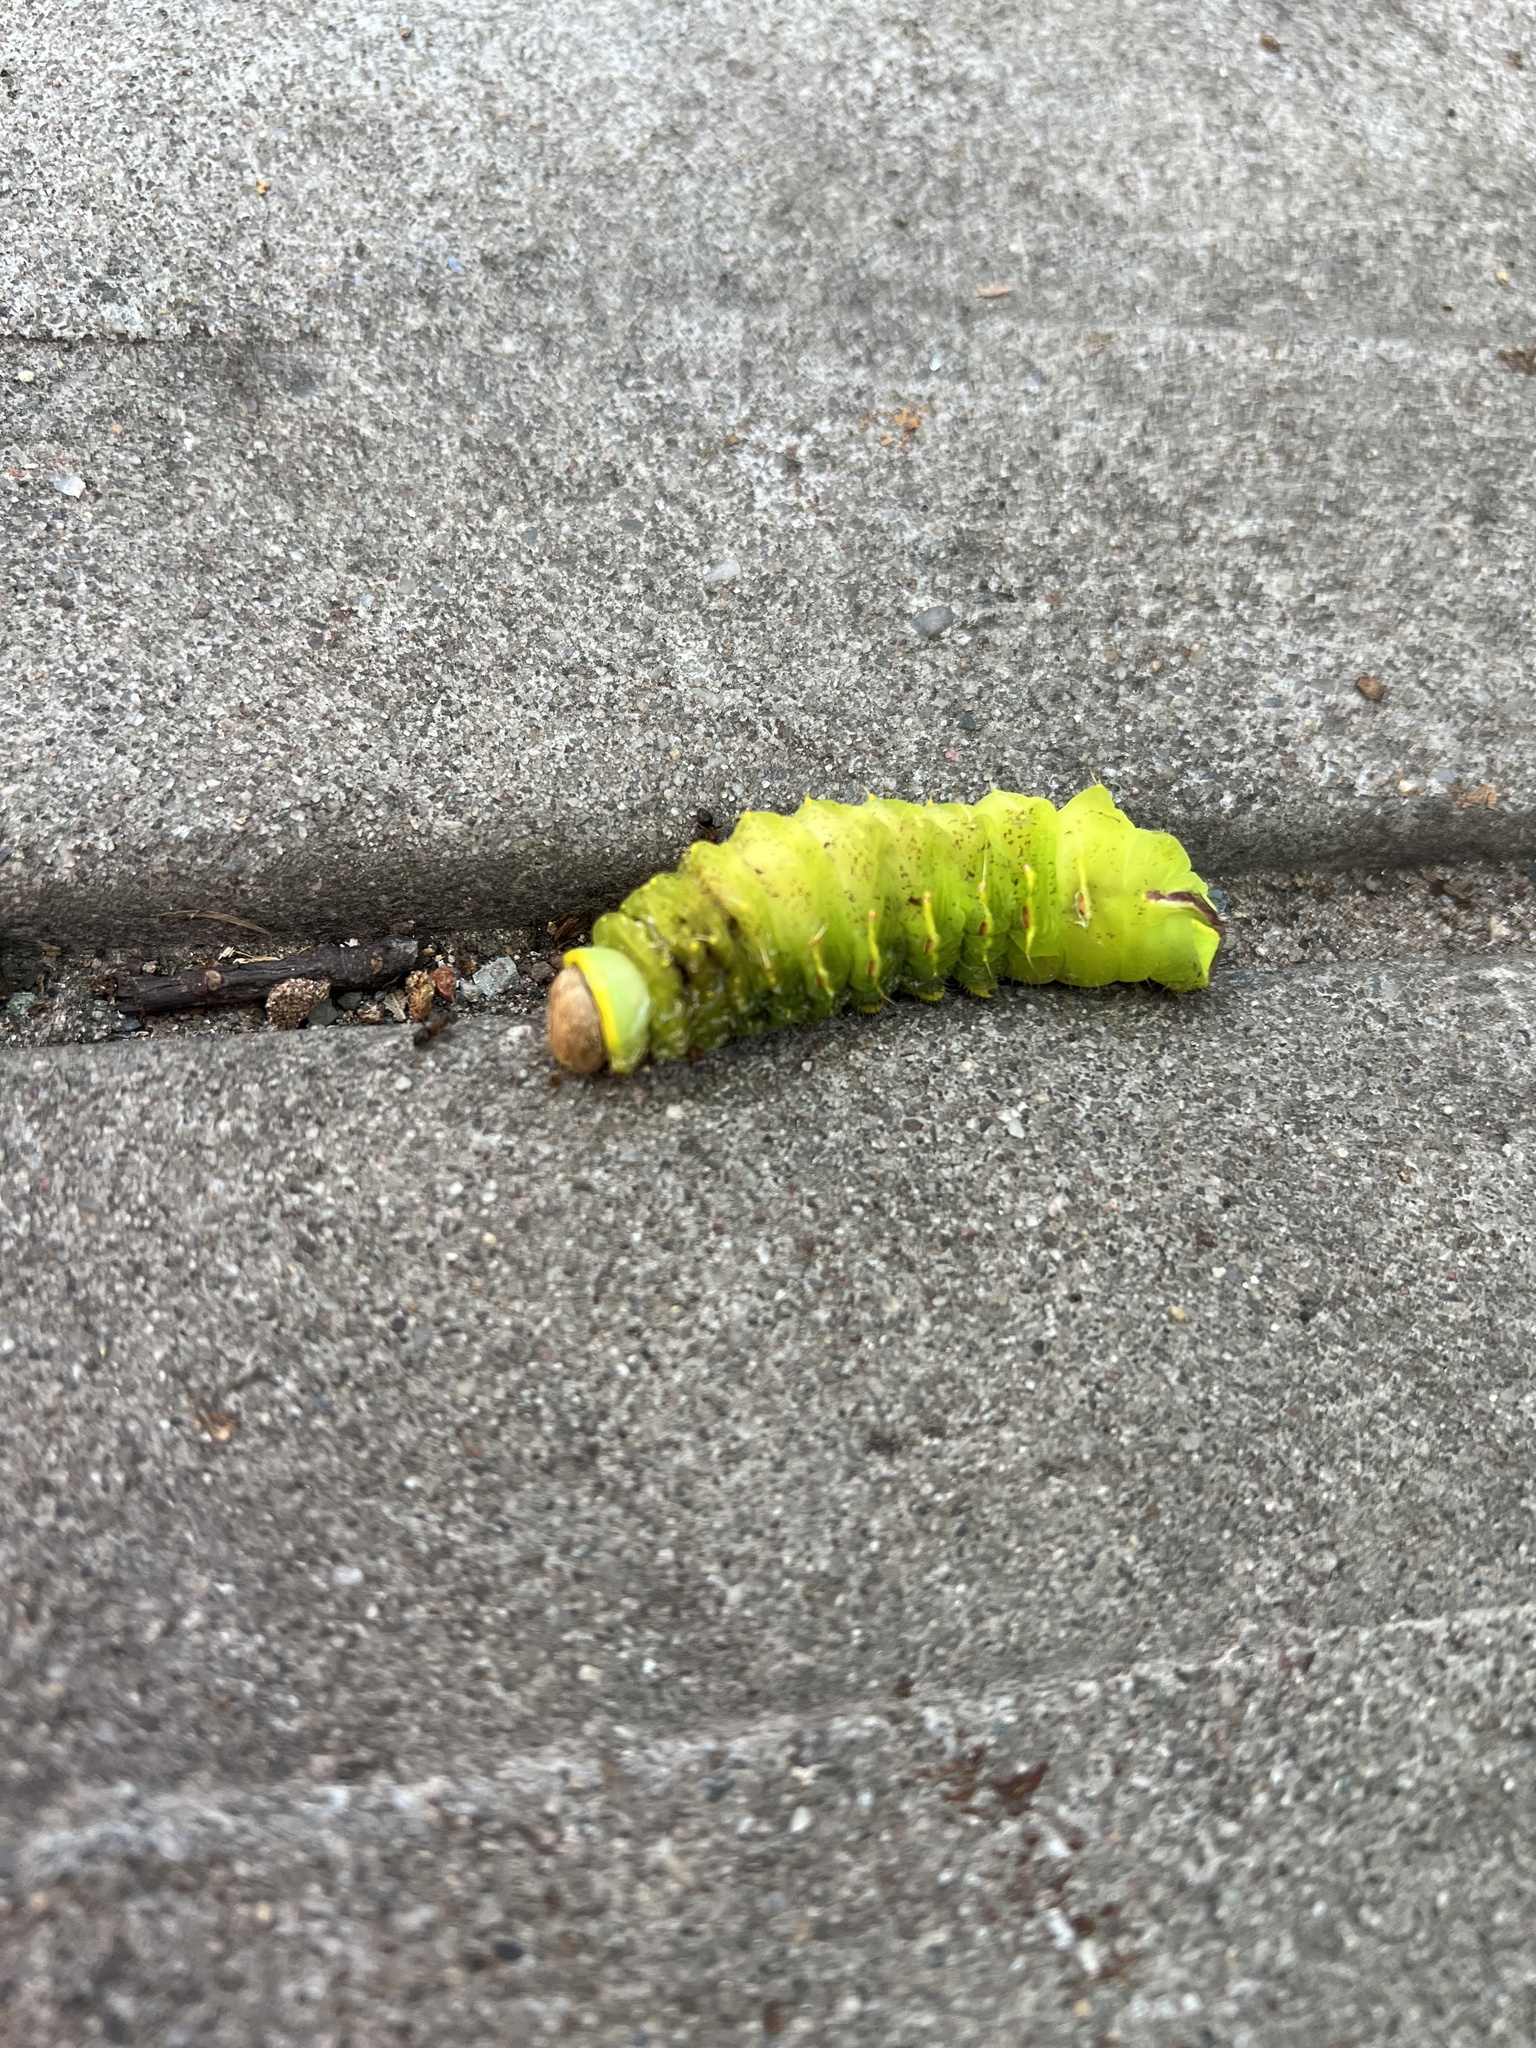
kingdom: Animalia
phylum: Arthropoda
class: Insecta
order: Lepidoptera
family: Saturniidae
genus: Antheraea
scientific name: Antheraea polyphemus
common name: Polyphemus moth
